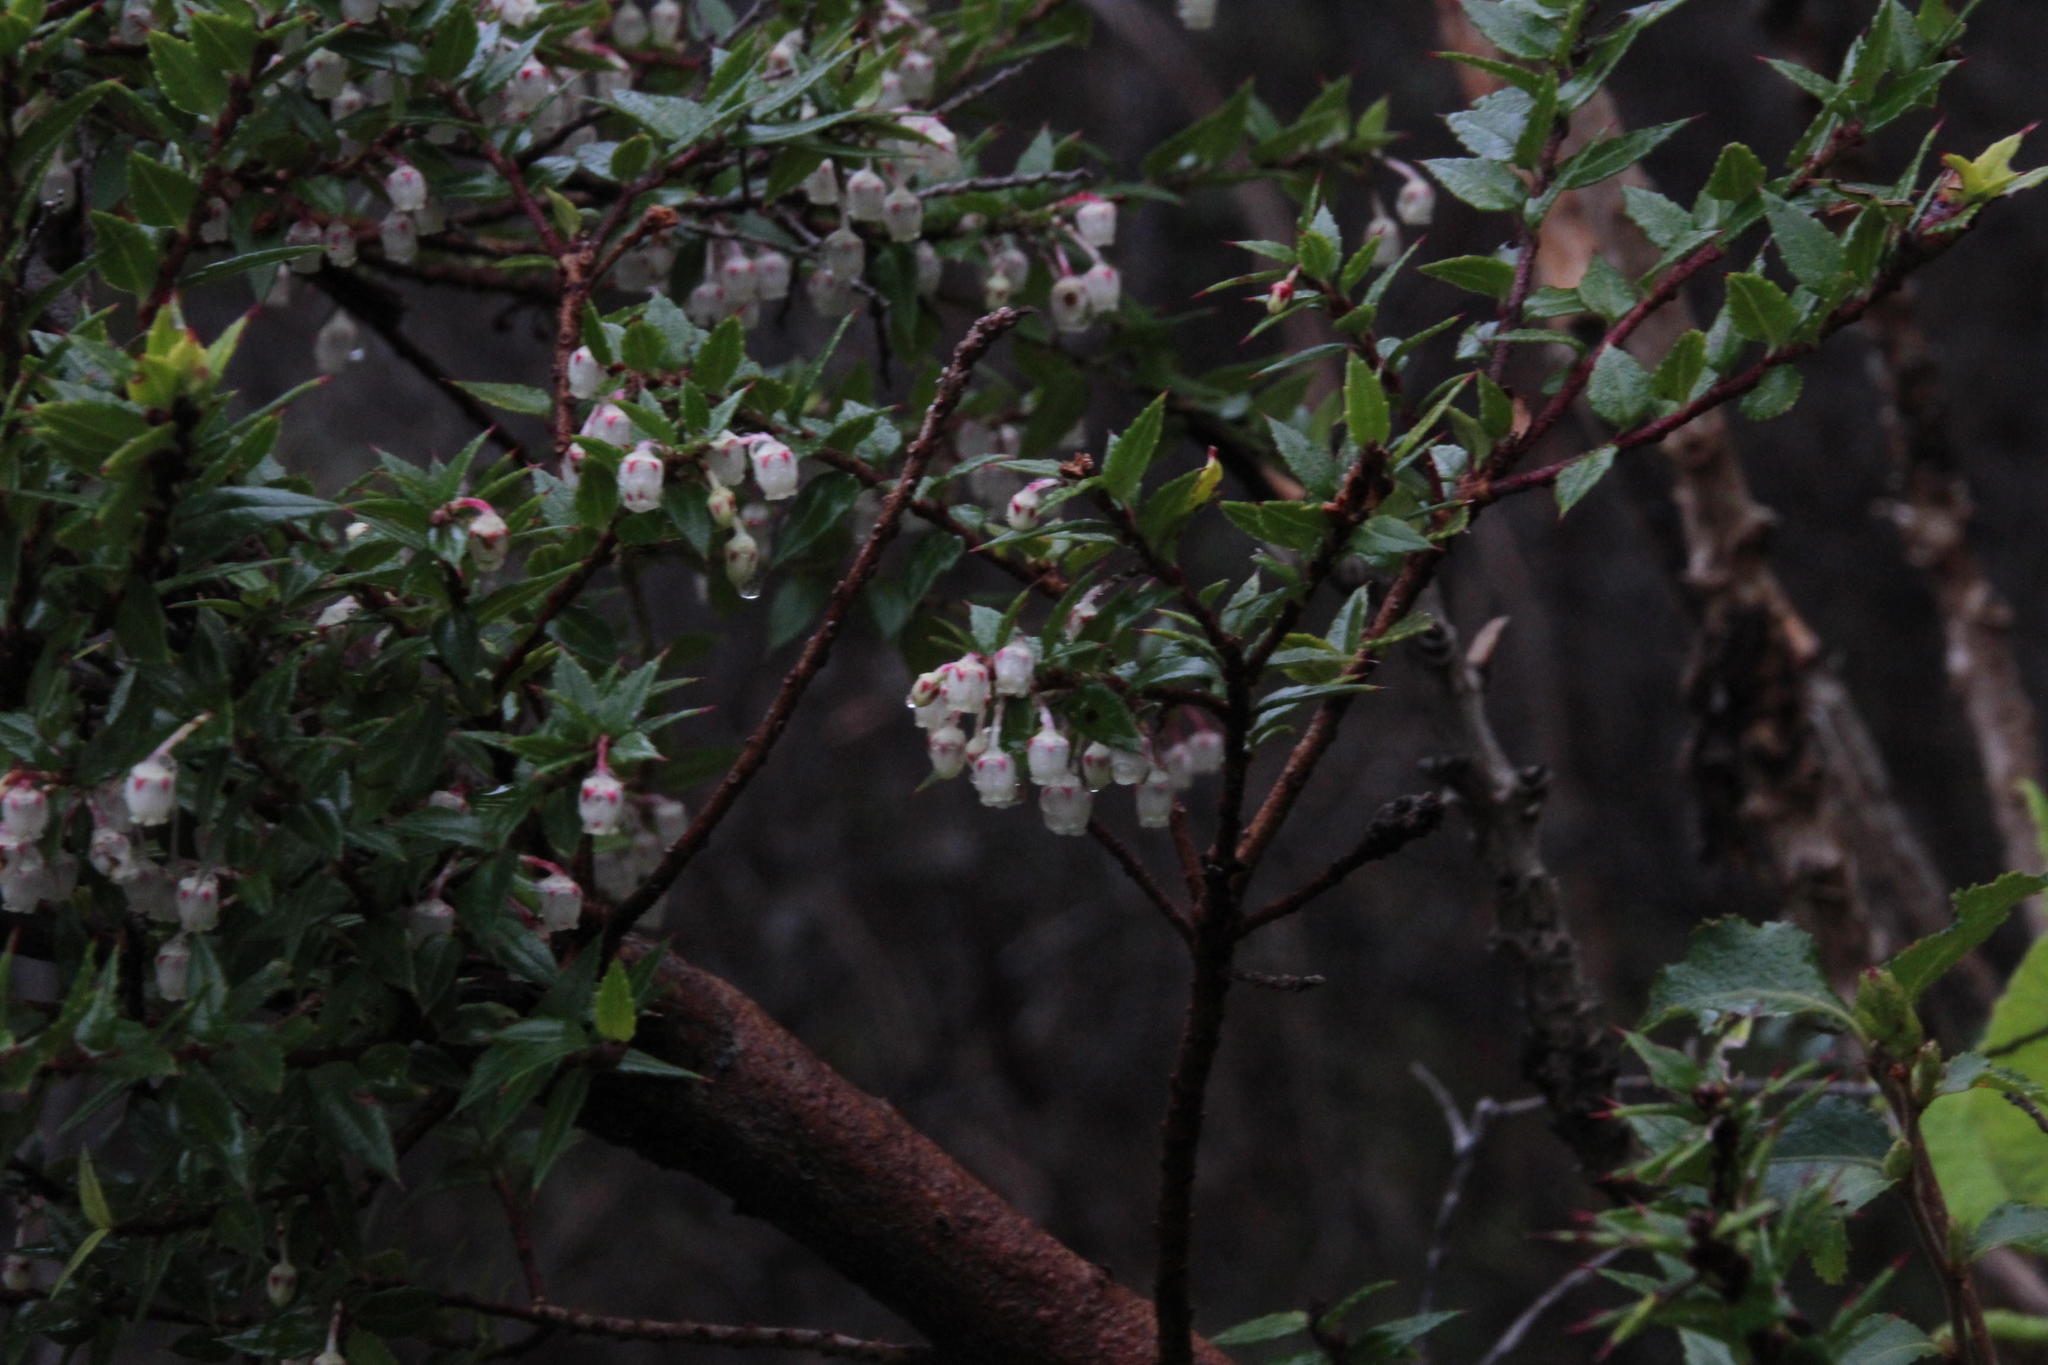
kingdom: Plantae
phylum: Tracheophyta
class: Magnoliopsida
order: Ericales
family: Ericaceae
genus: Gaultheria
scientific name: Gaultheria mucronata
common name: Prickly heath
